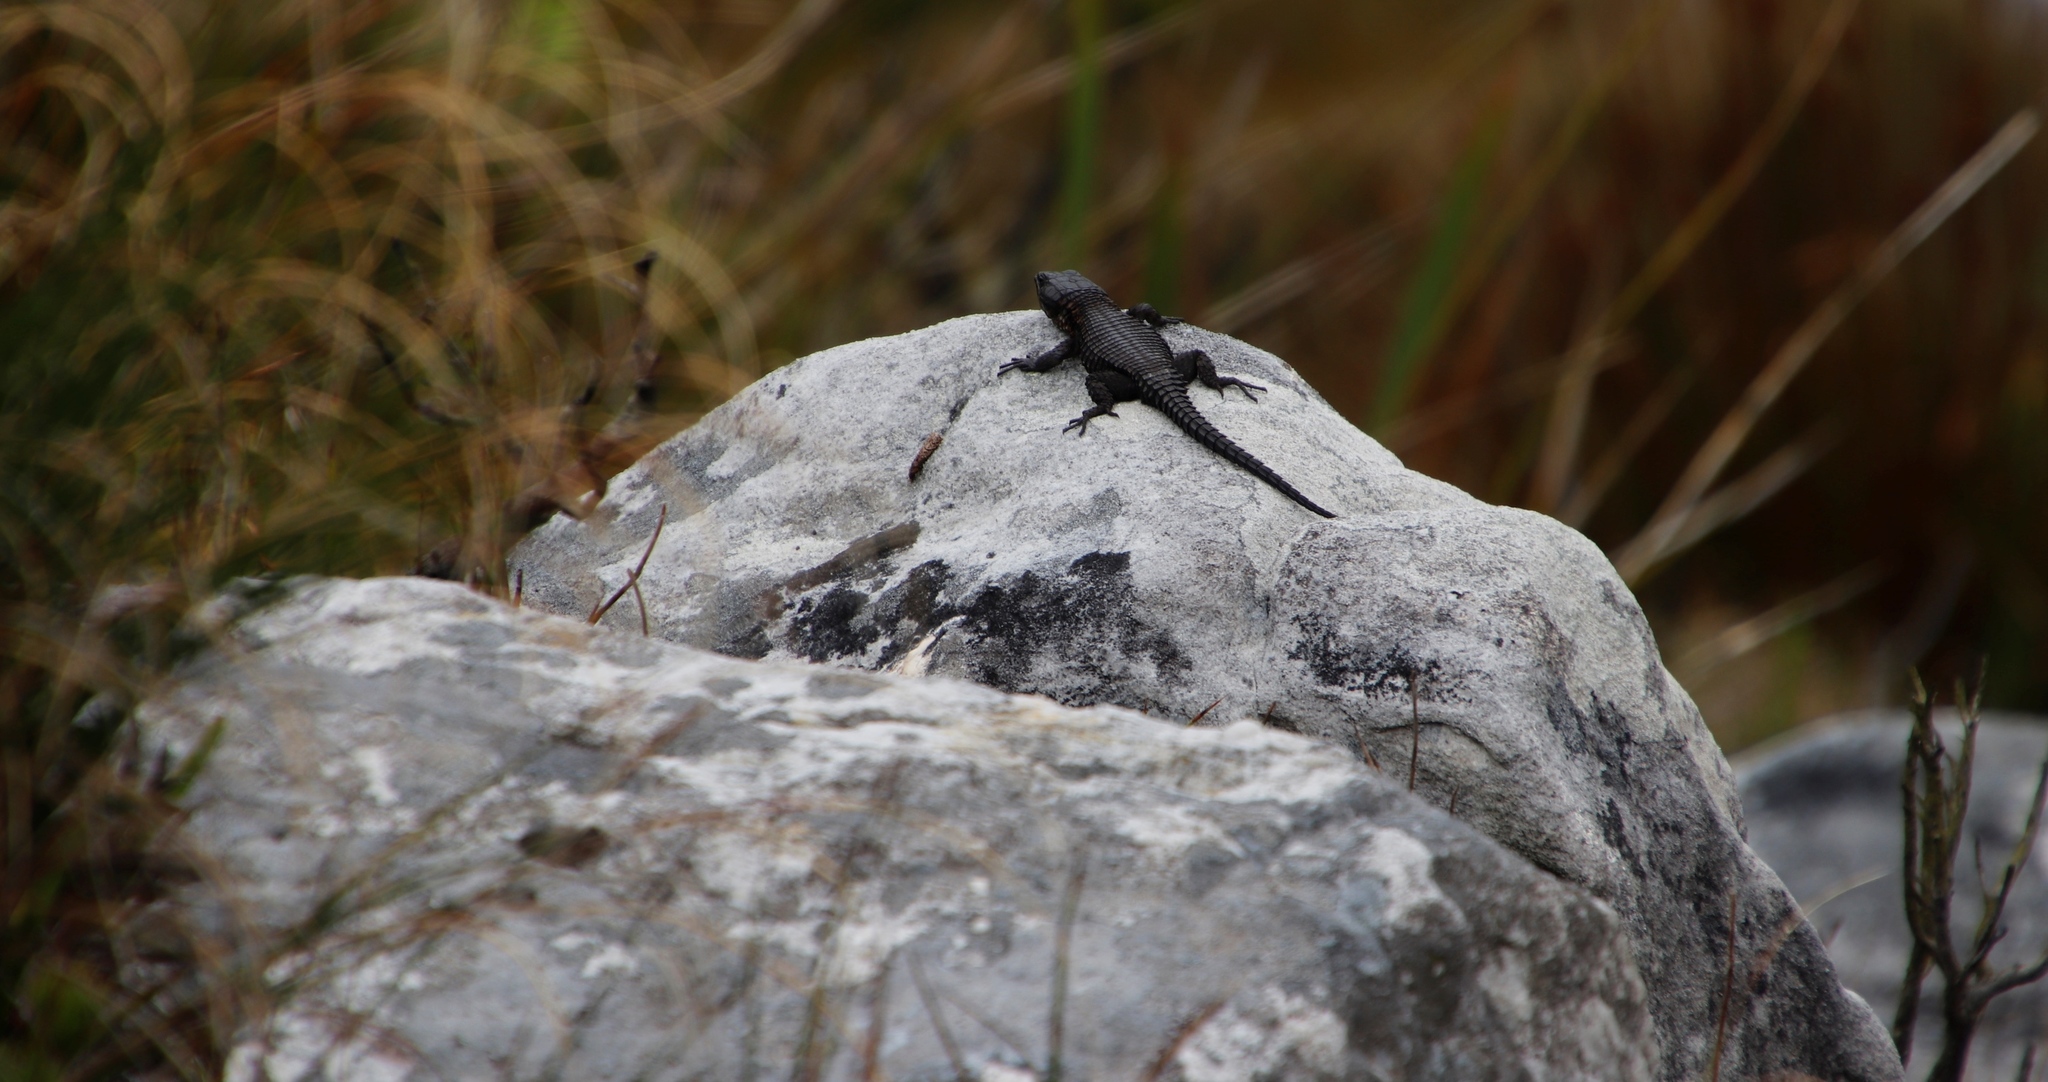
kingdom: Animalia
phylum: Chordata
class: Squamata
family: Cordylidae
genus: Cordylus
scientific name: Cordylus niger
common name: Black girdled lizard
